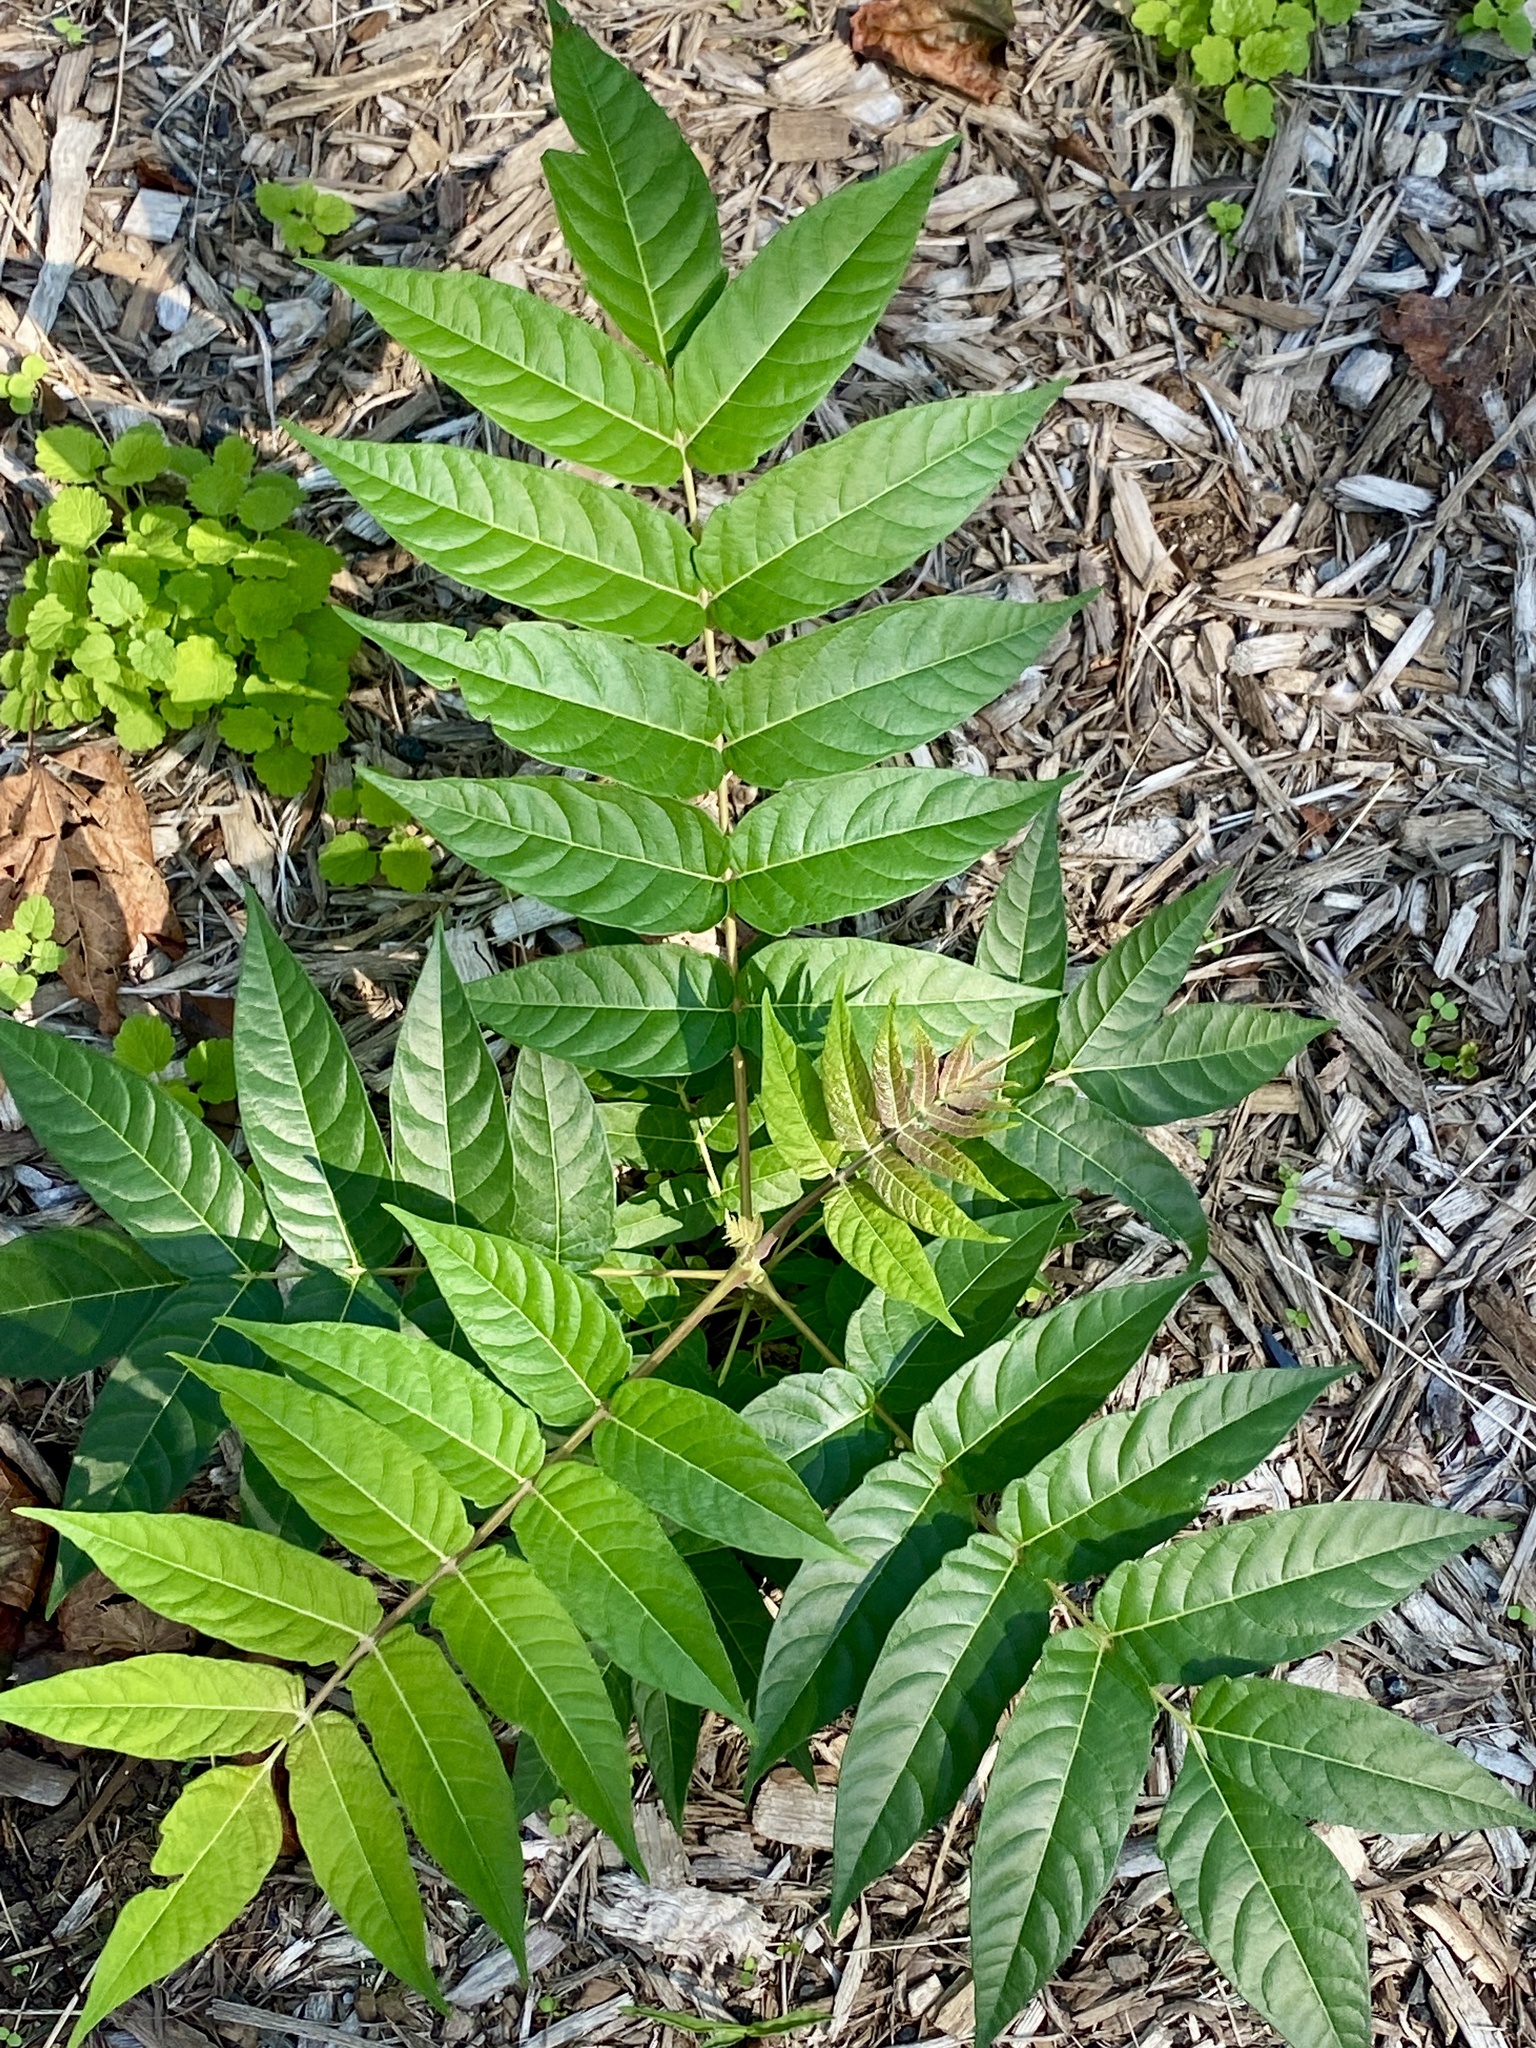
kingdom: Plantae
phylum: Tracheophyta
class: Magnoliopsida
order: Sapindales
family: Simaroubaceae
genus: Ailanthus
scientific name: Ailanthus altissima
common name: Tree-of-heaven
